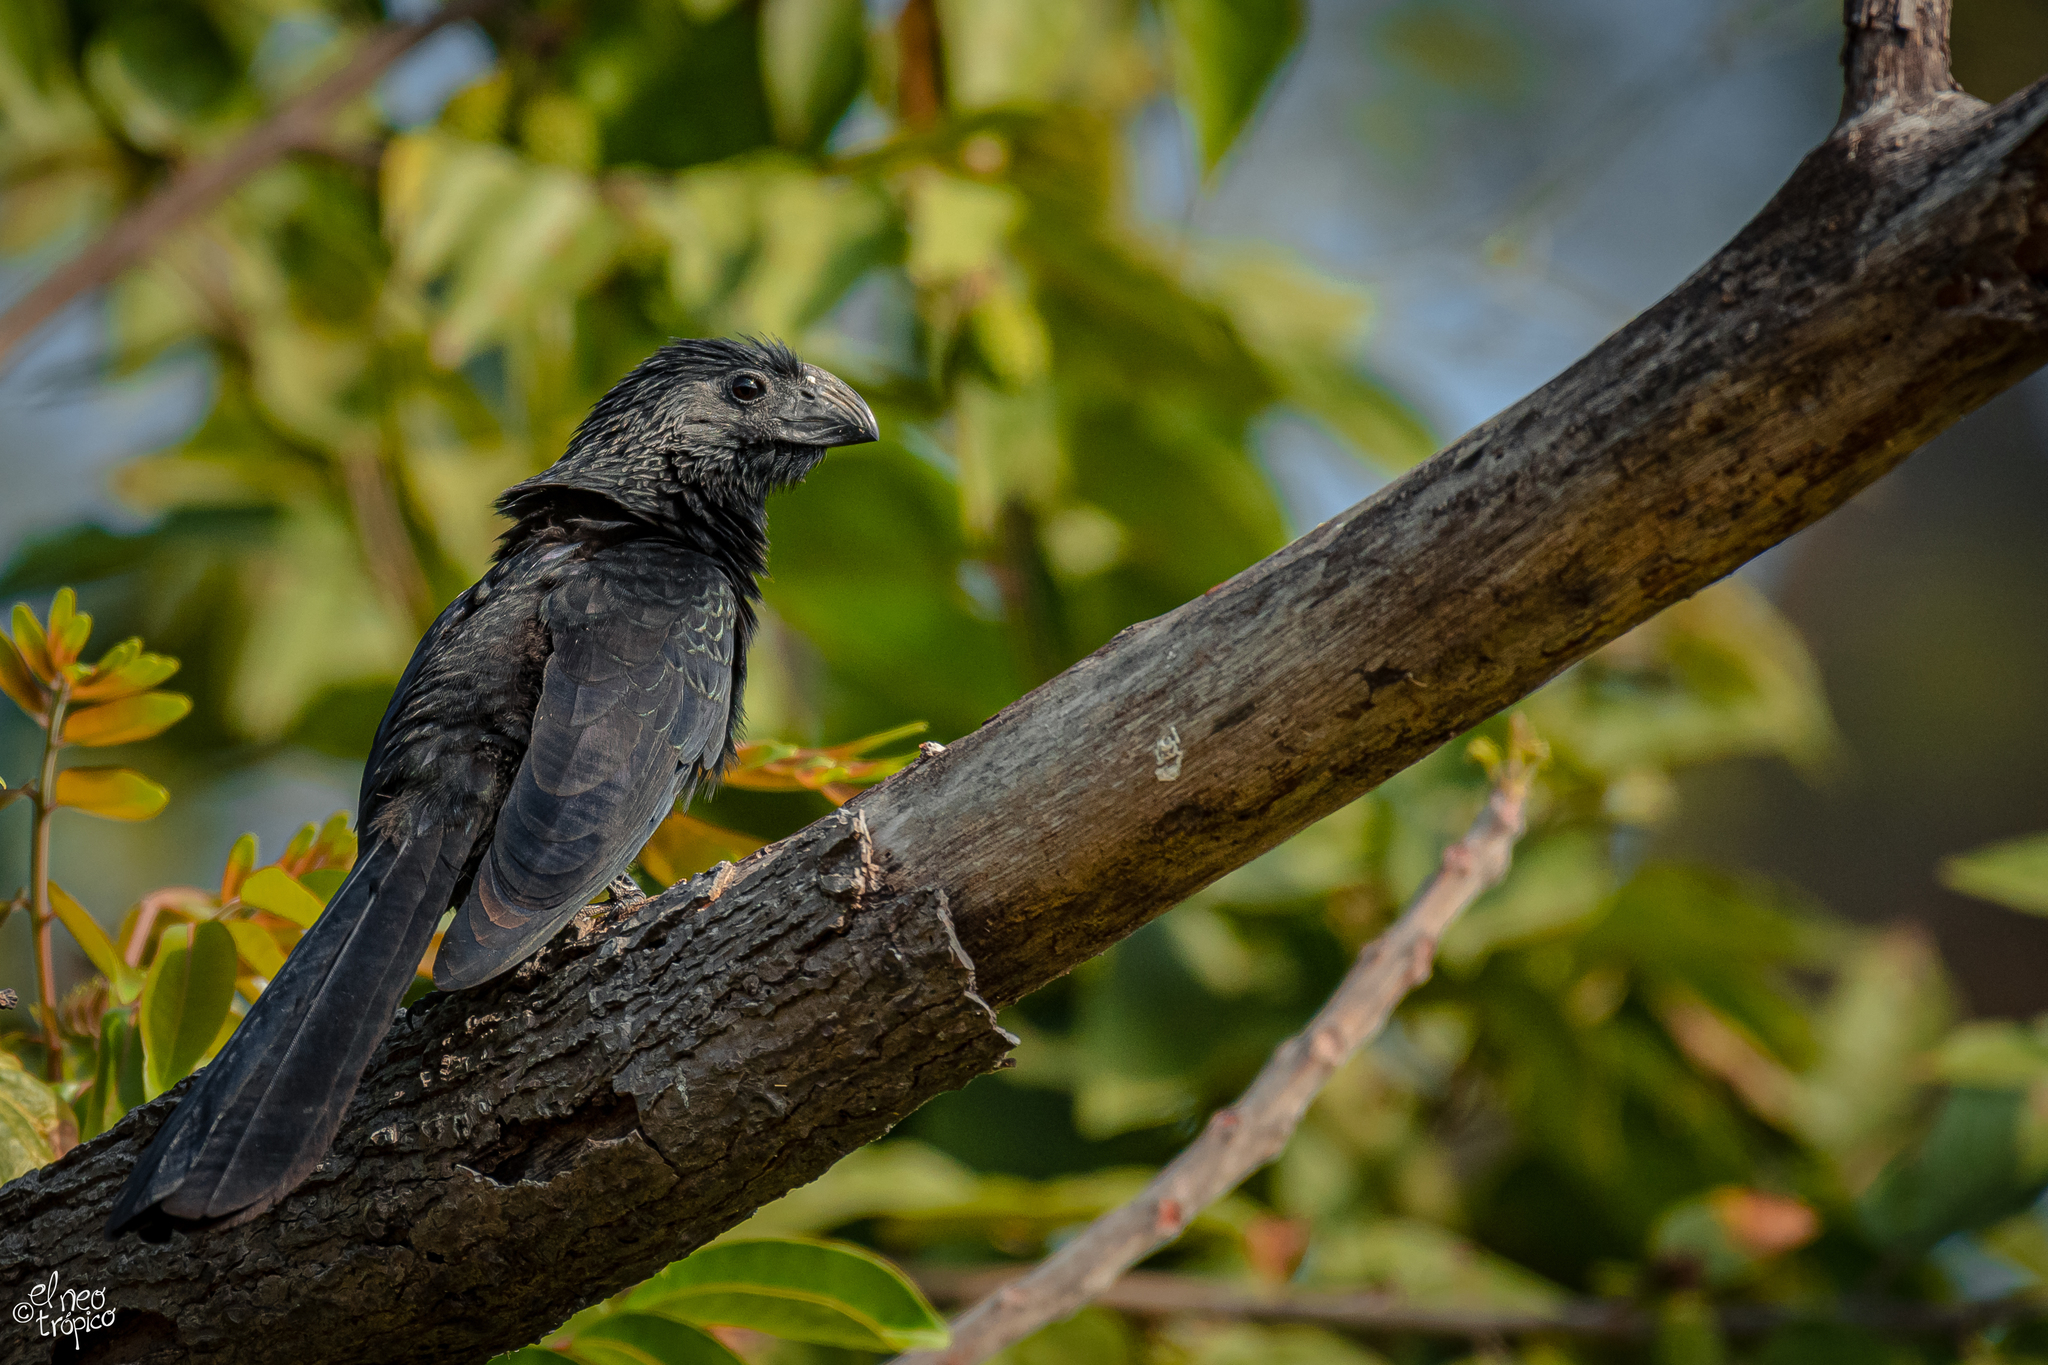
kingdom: Animalia
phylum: Chordata
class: Aves
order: Cuculiformes
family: Cuculidae
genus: Crotophaga
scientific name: Crotophaga sulcirostris
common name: Groove-billed ani
